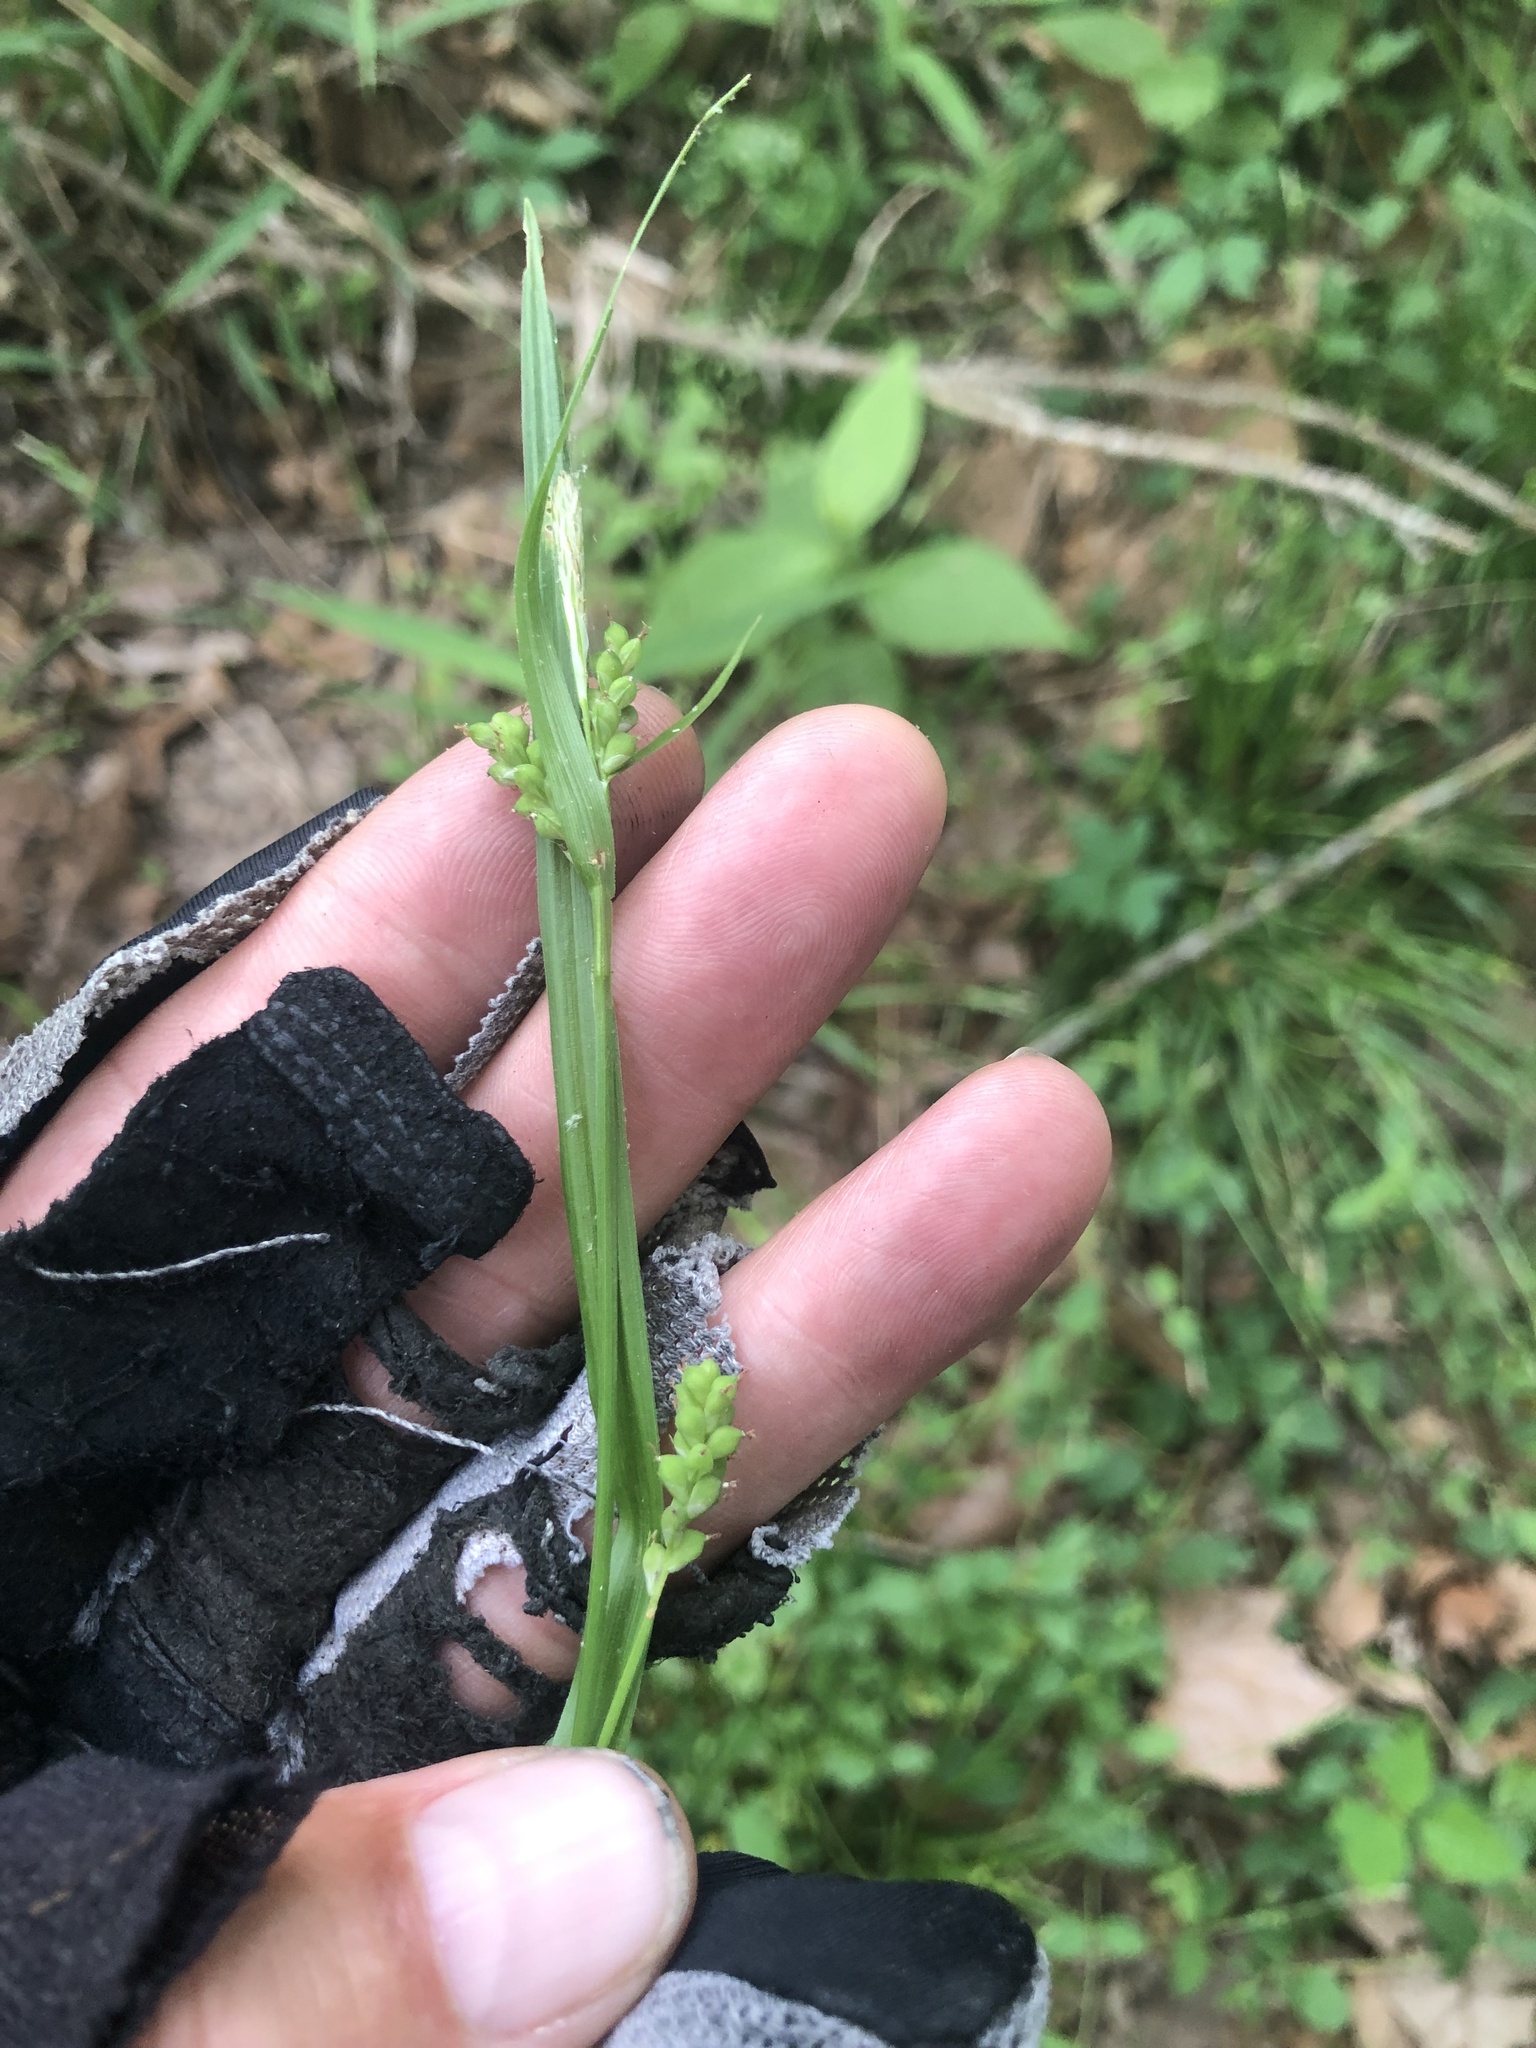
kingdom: Plantae
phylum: Tracheophyta
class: Liliopsida
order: Poales
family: Cyperaceae
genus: Carex
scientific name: Carex blanda
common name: Bland sedge
